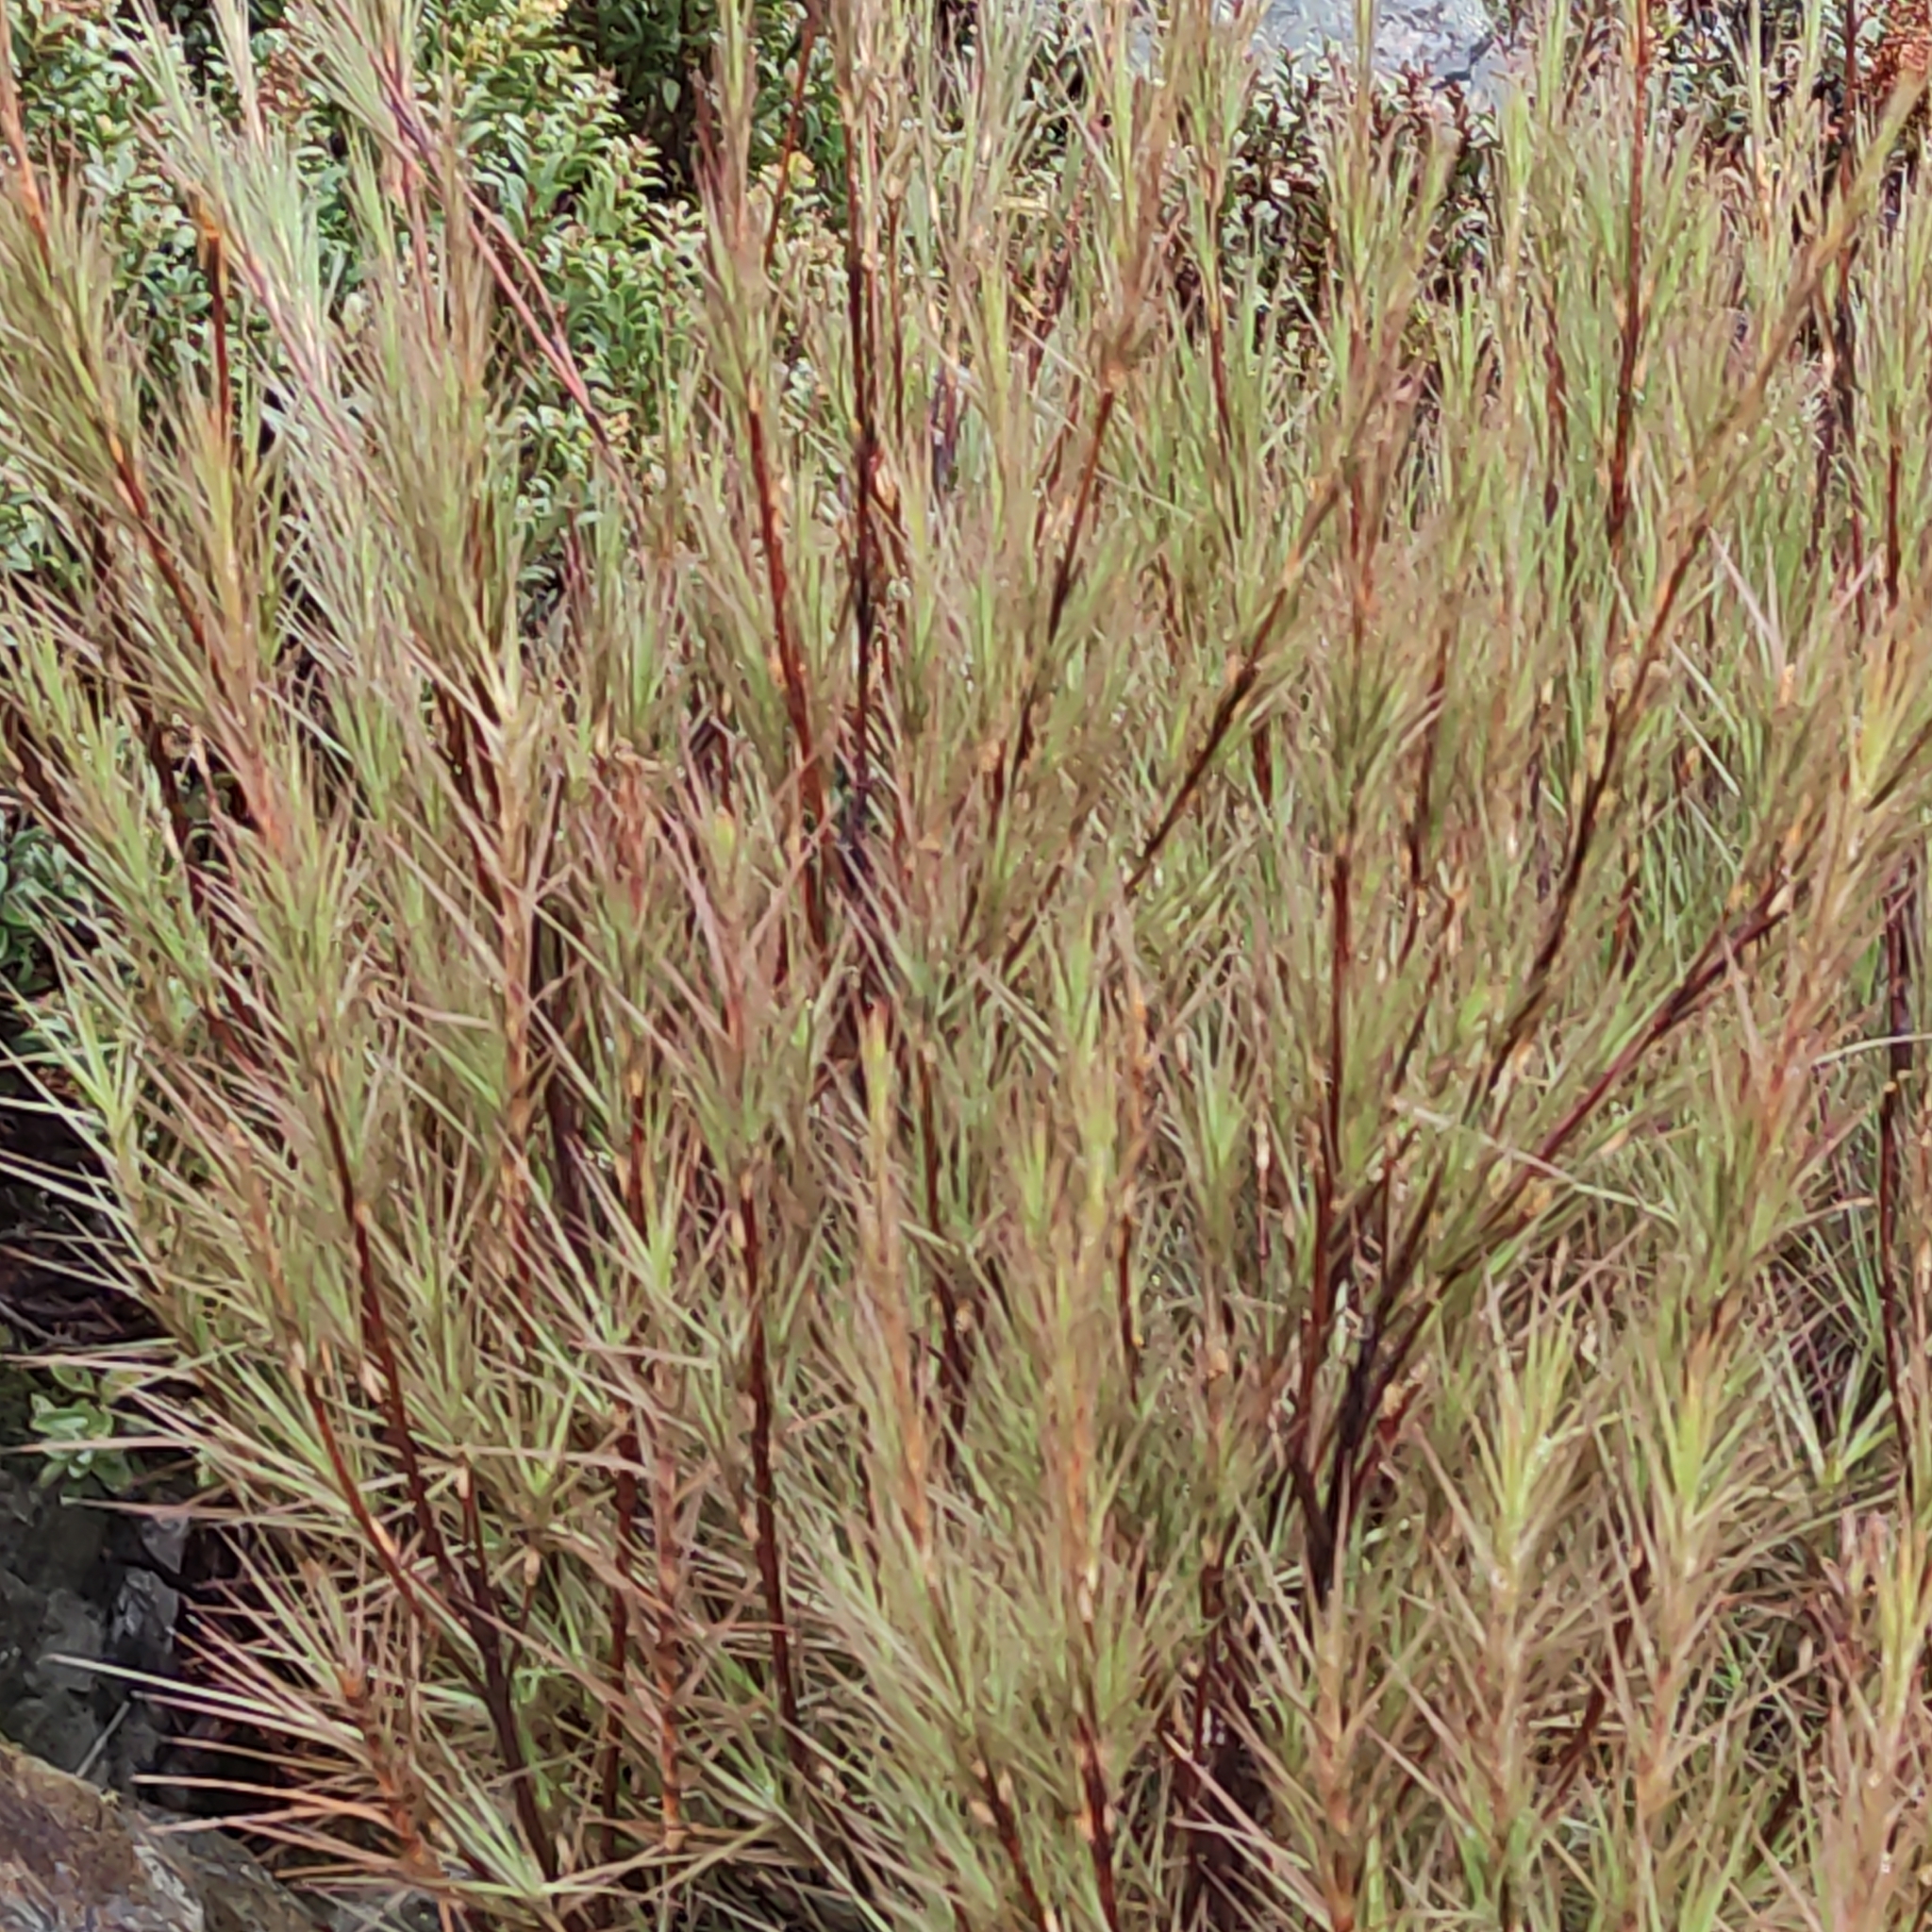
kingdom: Plantae
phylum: Tracheophyta
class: Magnoliopsida
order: Ericales
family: Ericaceae
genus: Dracophyllum
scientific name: Dracophyllum longifolium
